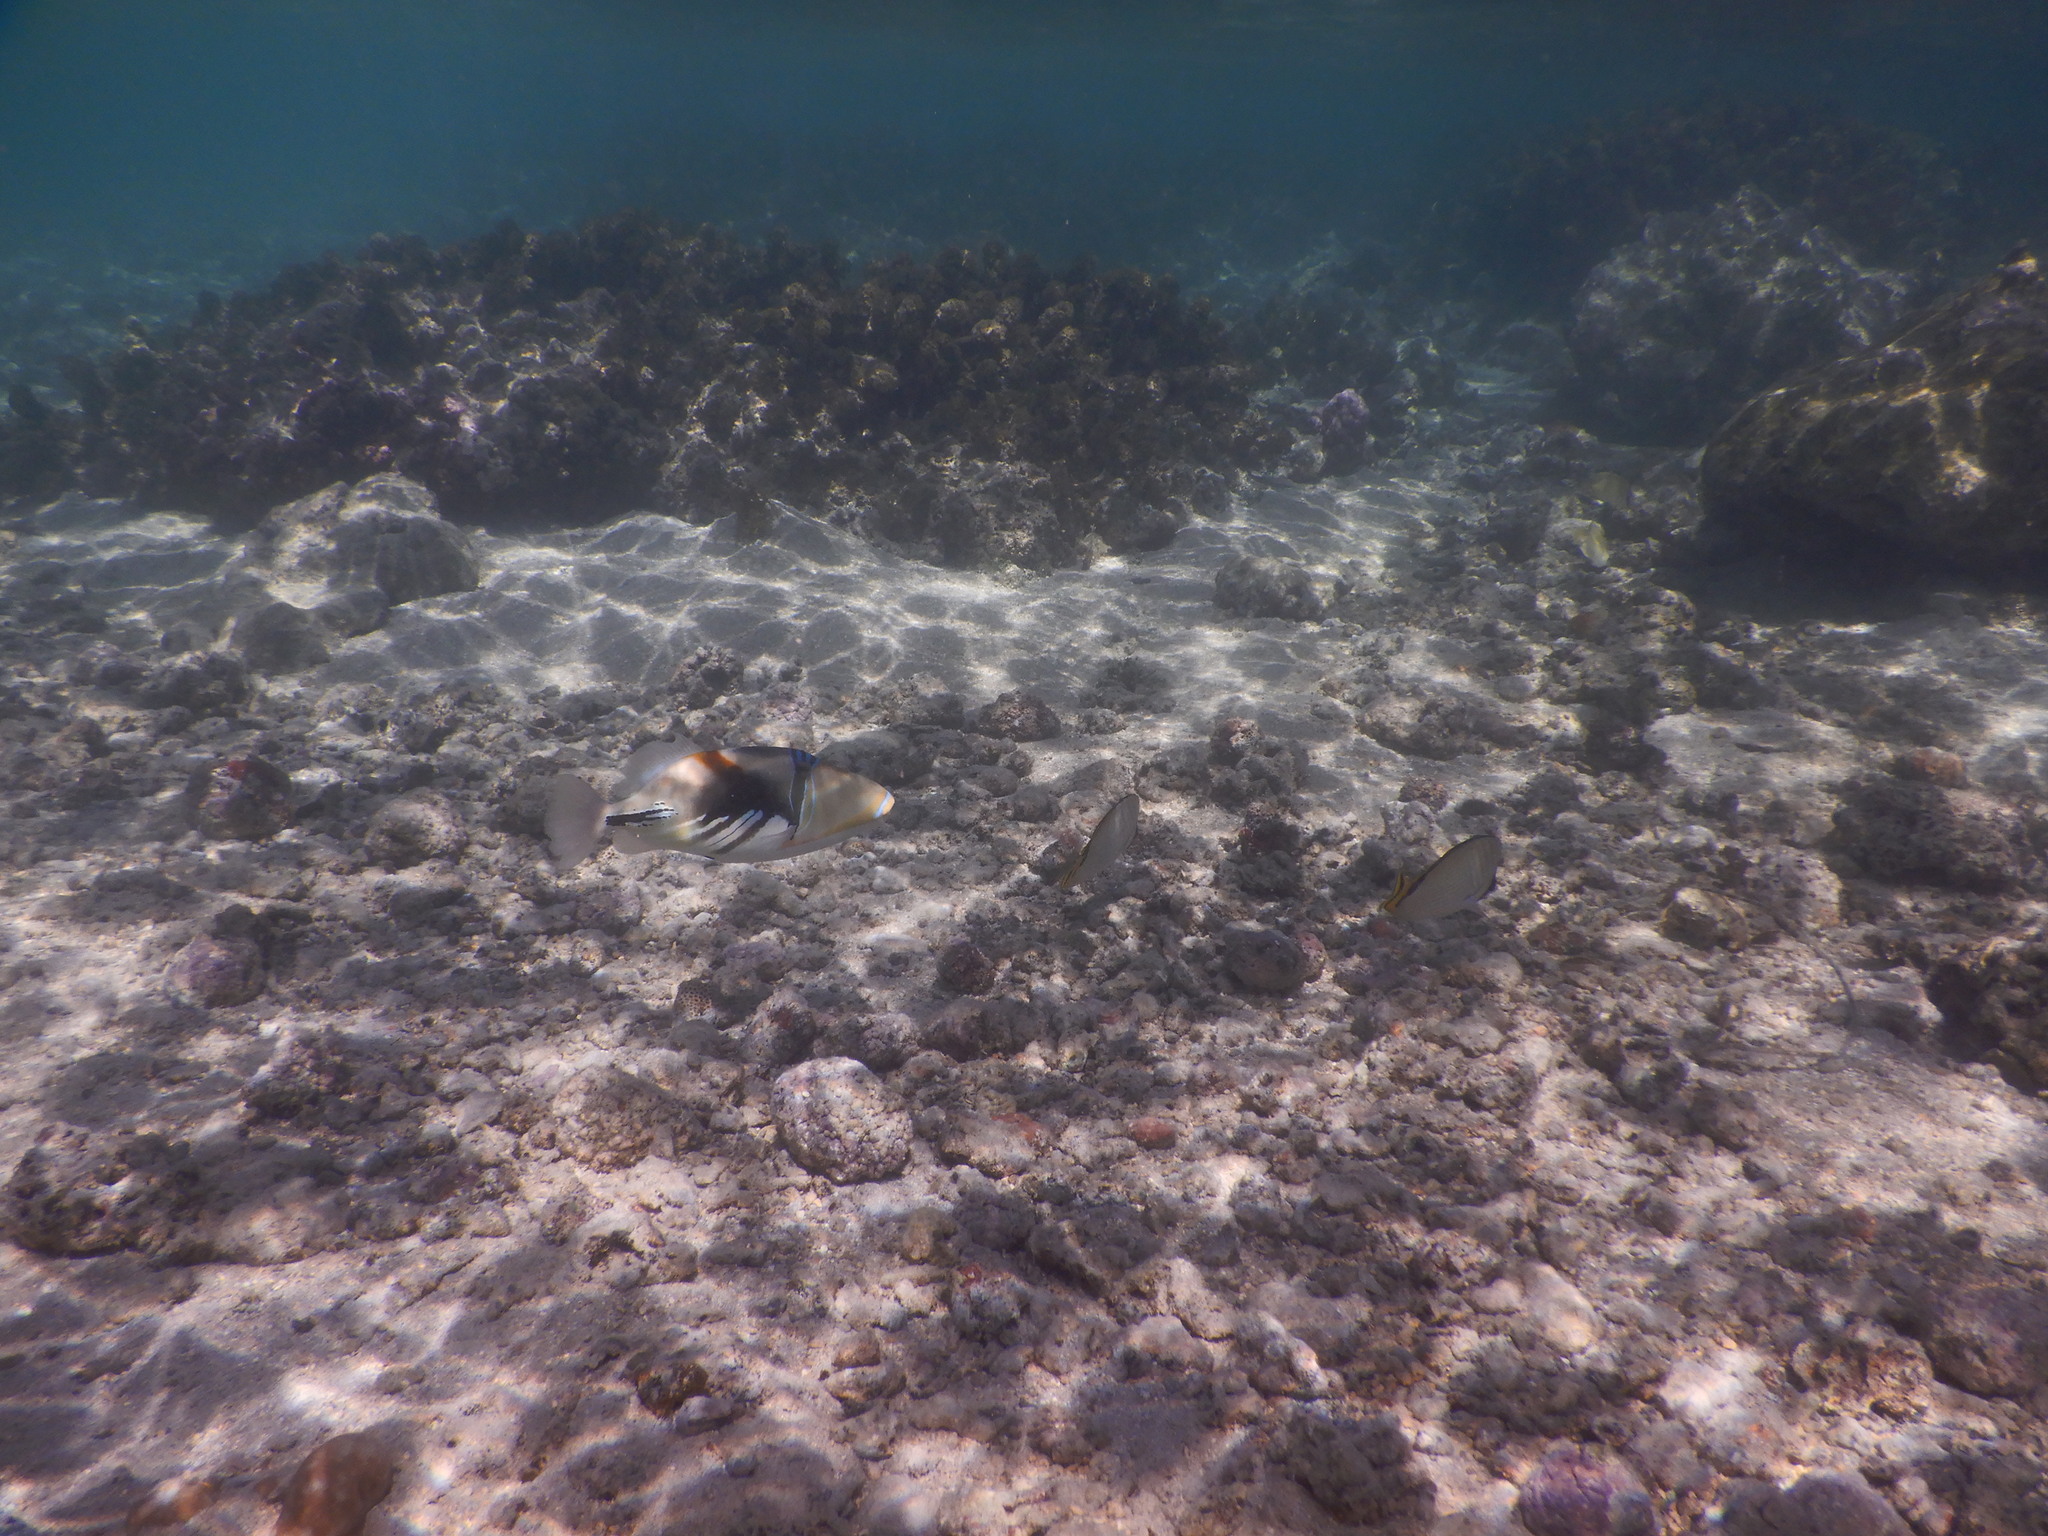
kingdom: Animalia
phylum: Chordata
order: Tetraodontiformes
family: Balistidae
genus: Rhinecanthus
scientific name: Rhinecanthus aculeatus
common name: White-banded triggerfish
